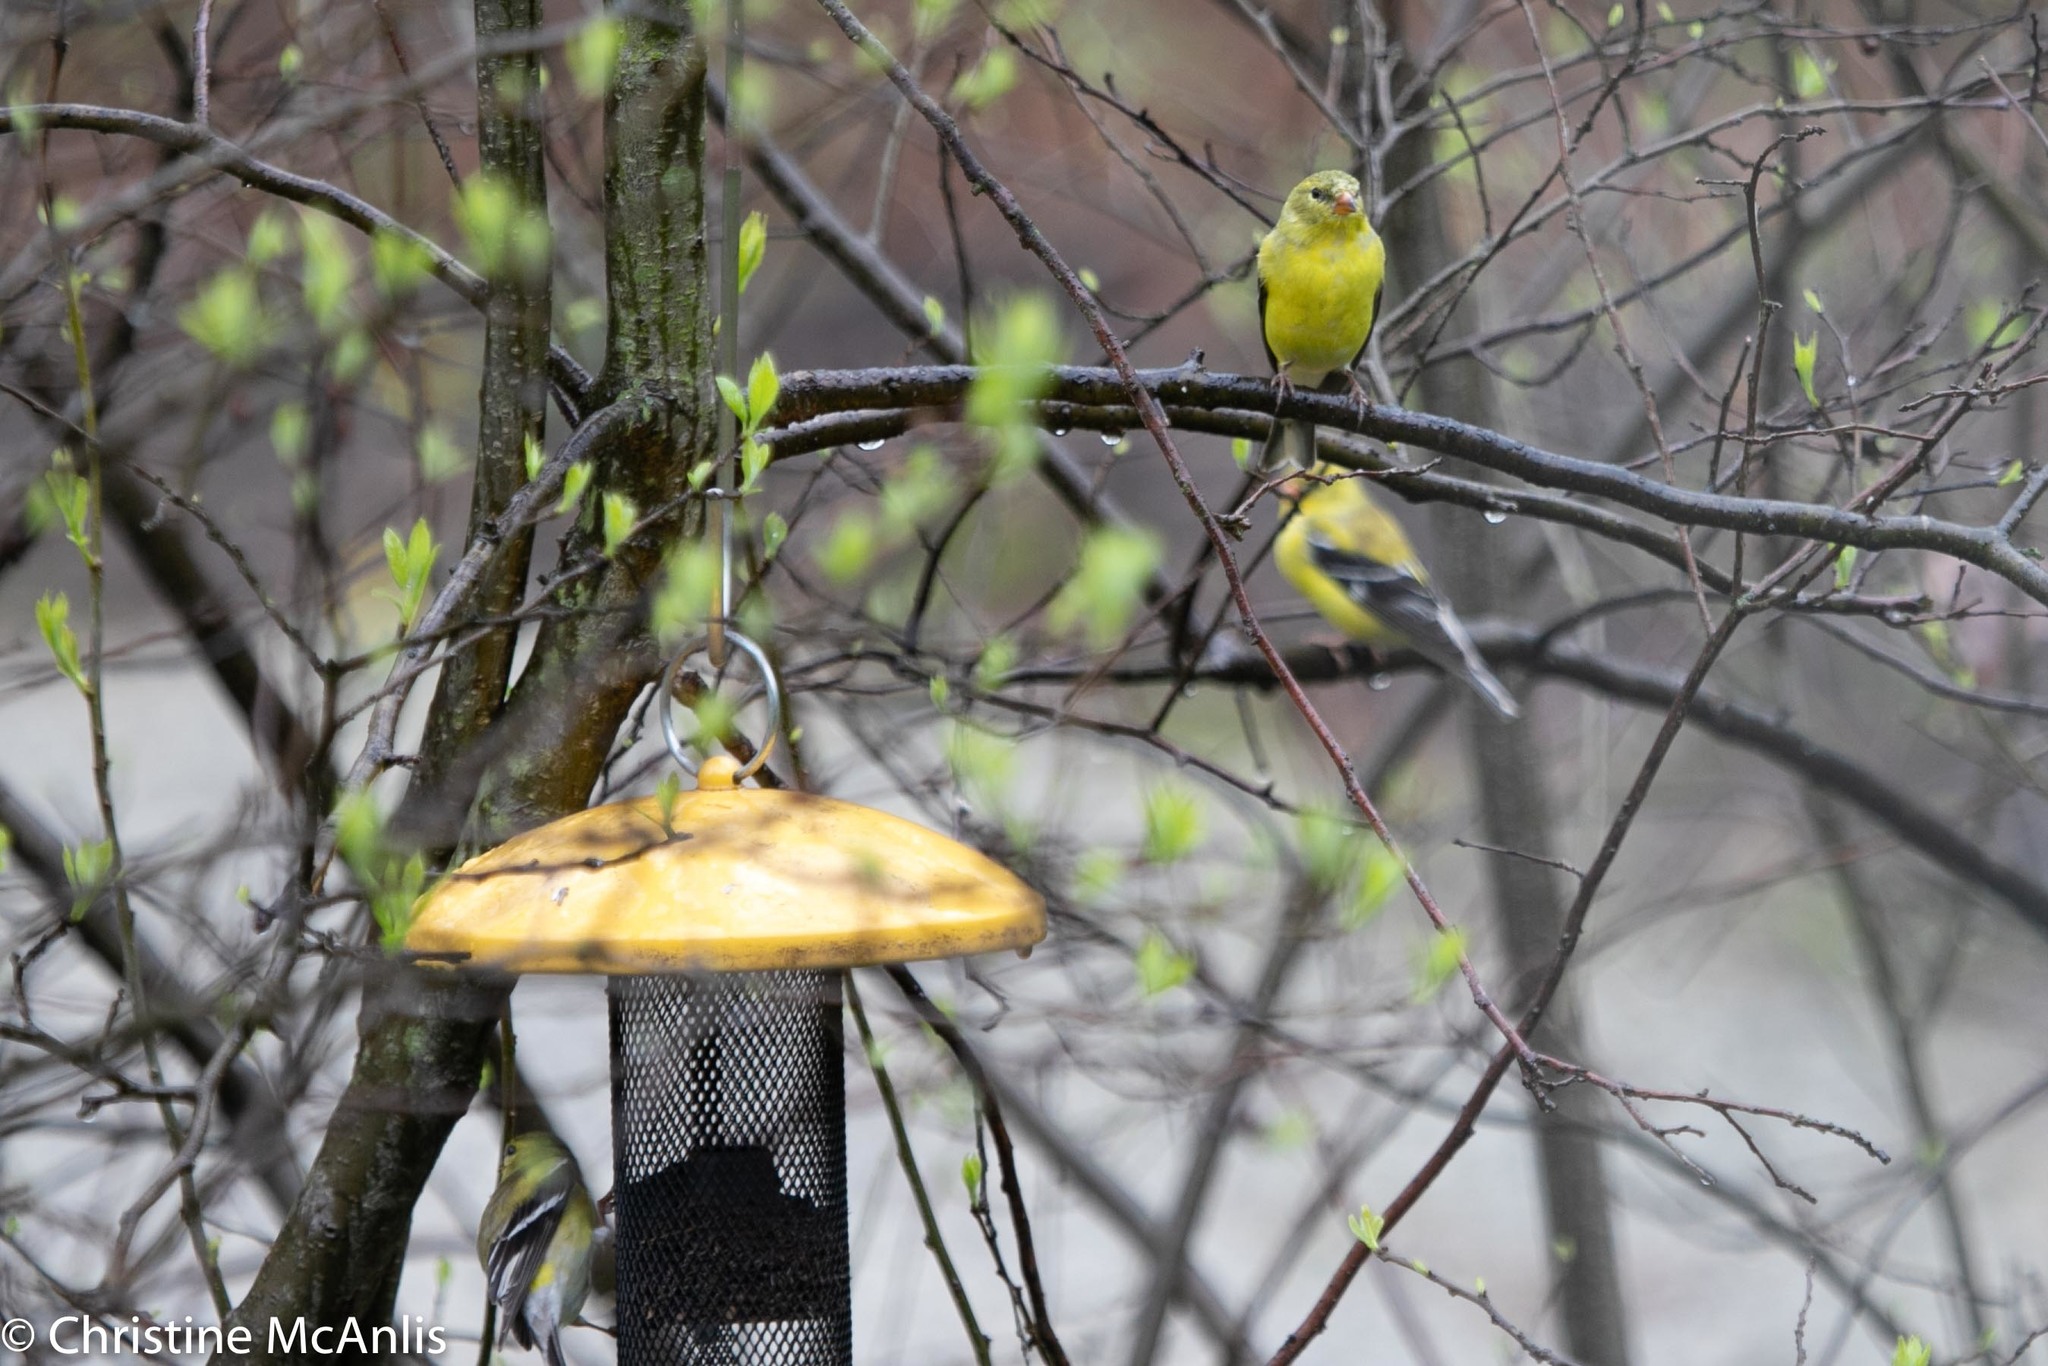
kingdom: Animalia
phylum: Chordata
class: Aves
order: Passeriformes
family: Fringillidae
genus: Spinus
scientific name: Spinus tristis
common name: American goldfinch
